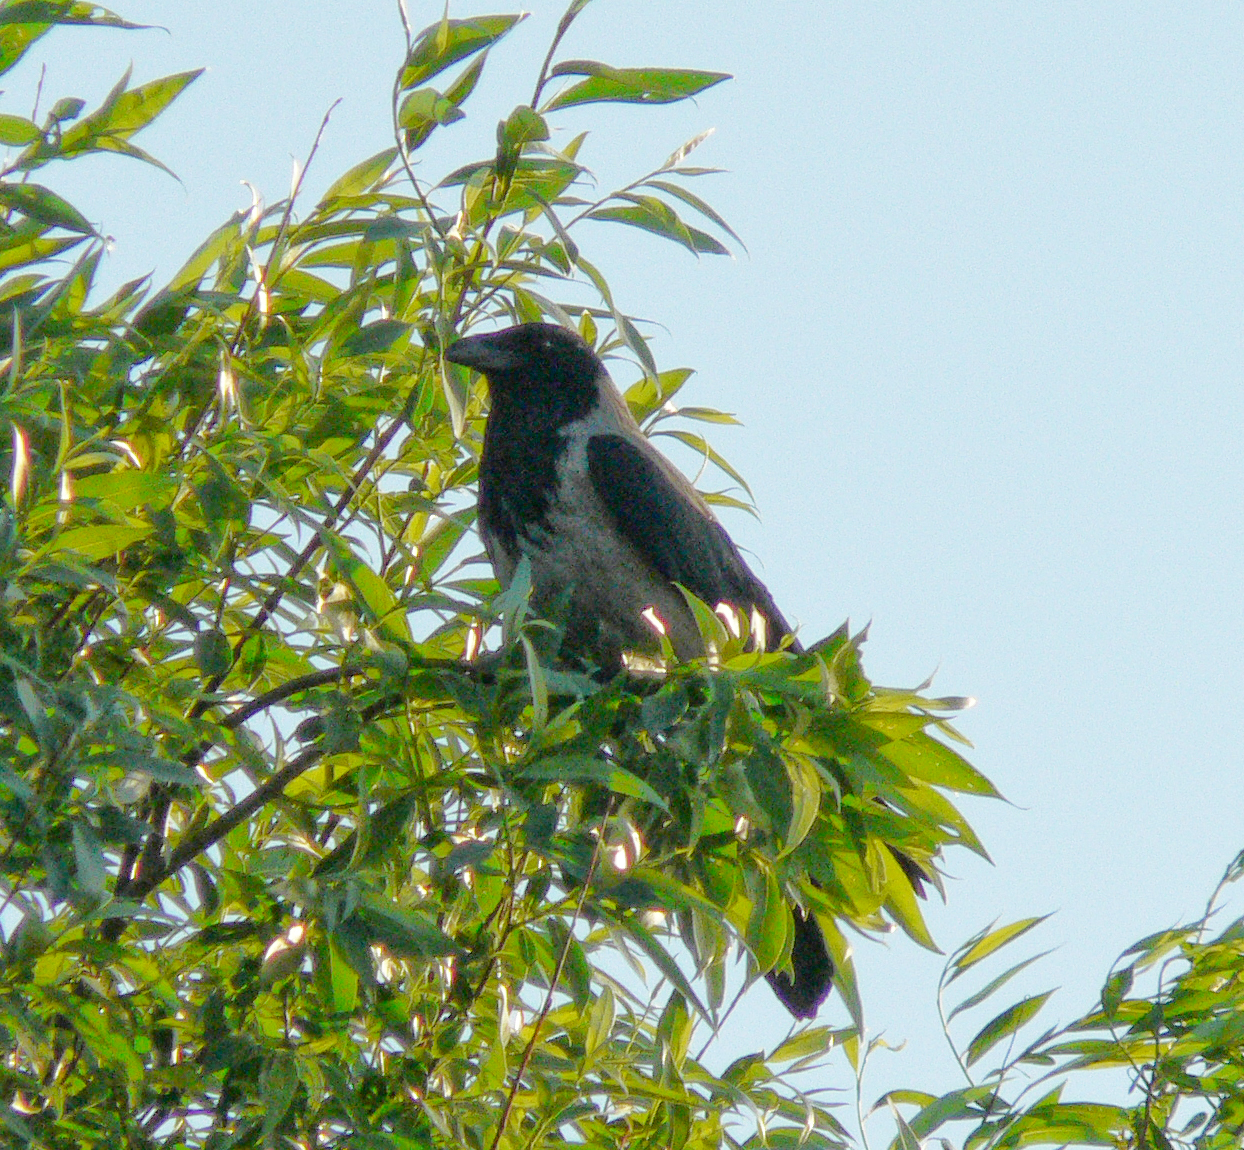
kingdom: Animalia
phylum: Chordata
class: Aves
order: Passeriformes
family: Corvidae
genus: Corvus
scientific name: Corvus cornix
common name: Hooded crow
